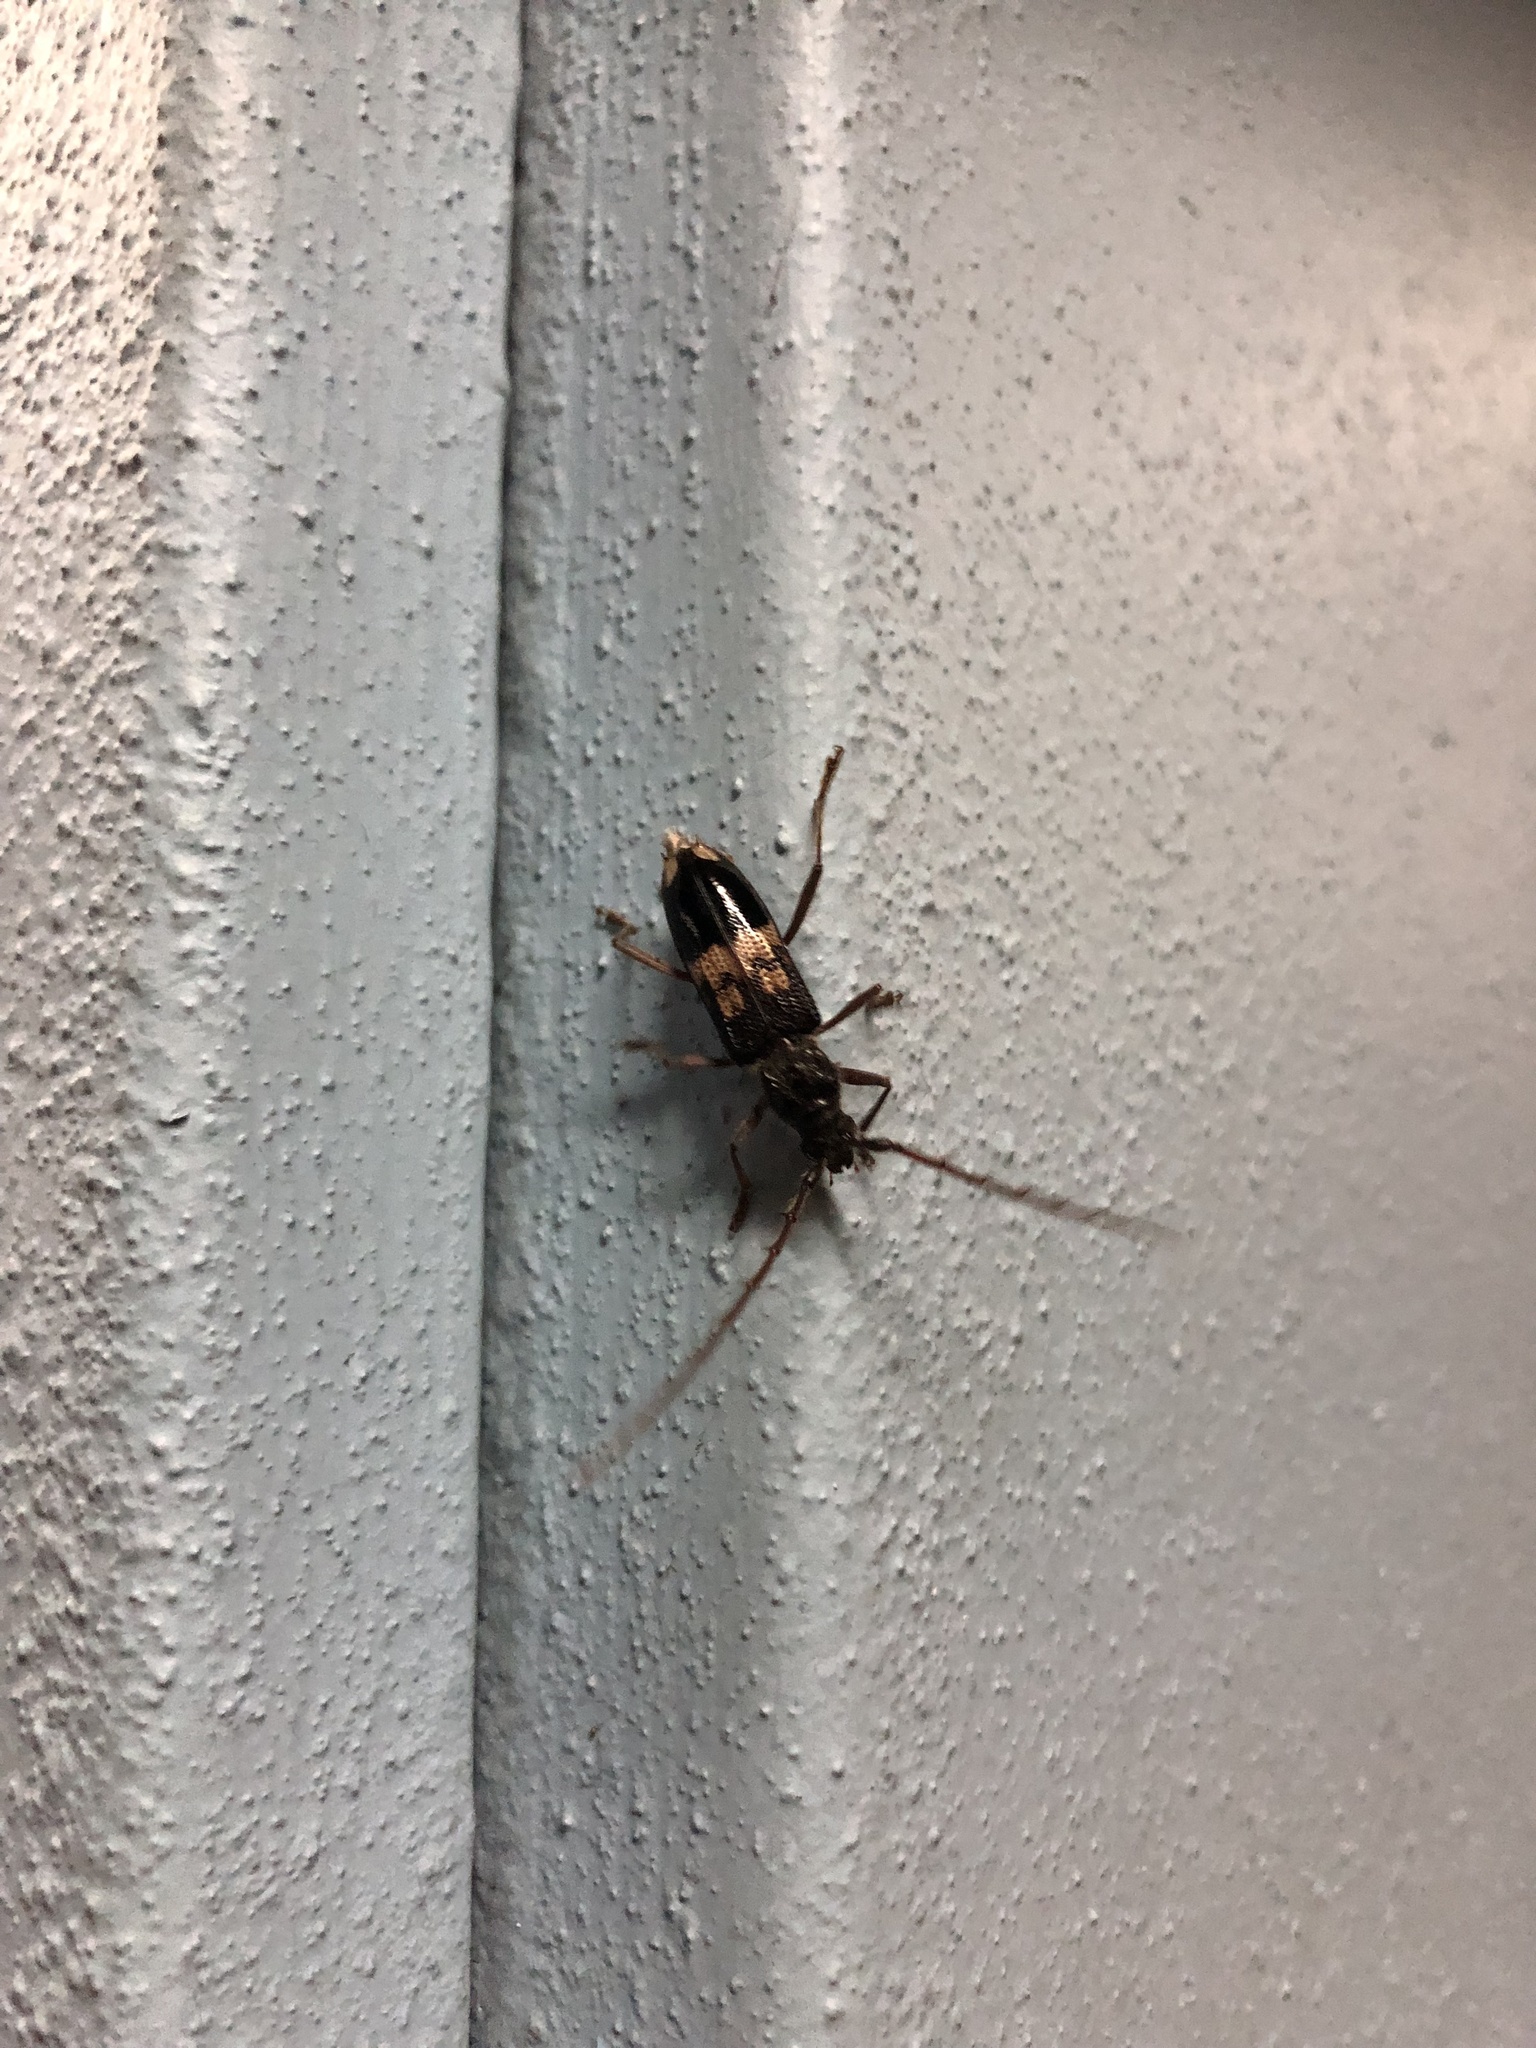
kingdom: Animalia
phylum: Arthropoda
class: Insecta
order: Coleoptera
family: Cerambycidae
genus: Phoracantha
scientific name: Phoracantha semipunctata
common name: Eucalyptus longhorn borer
